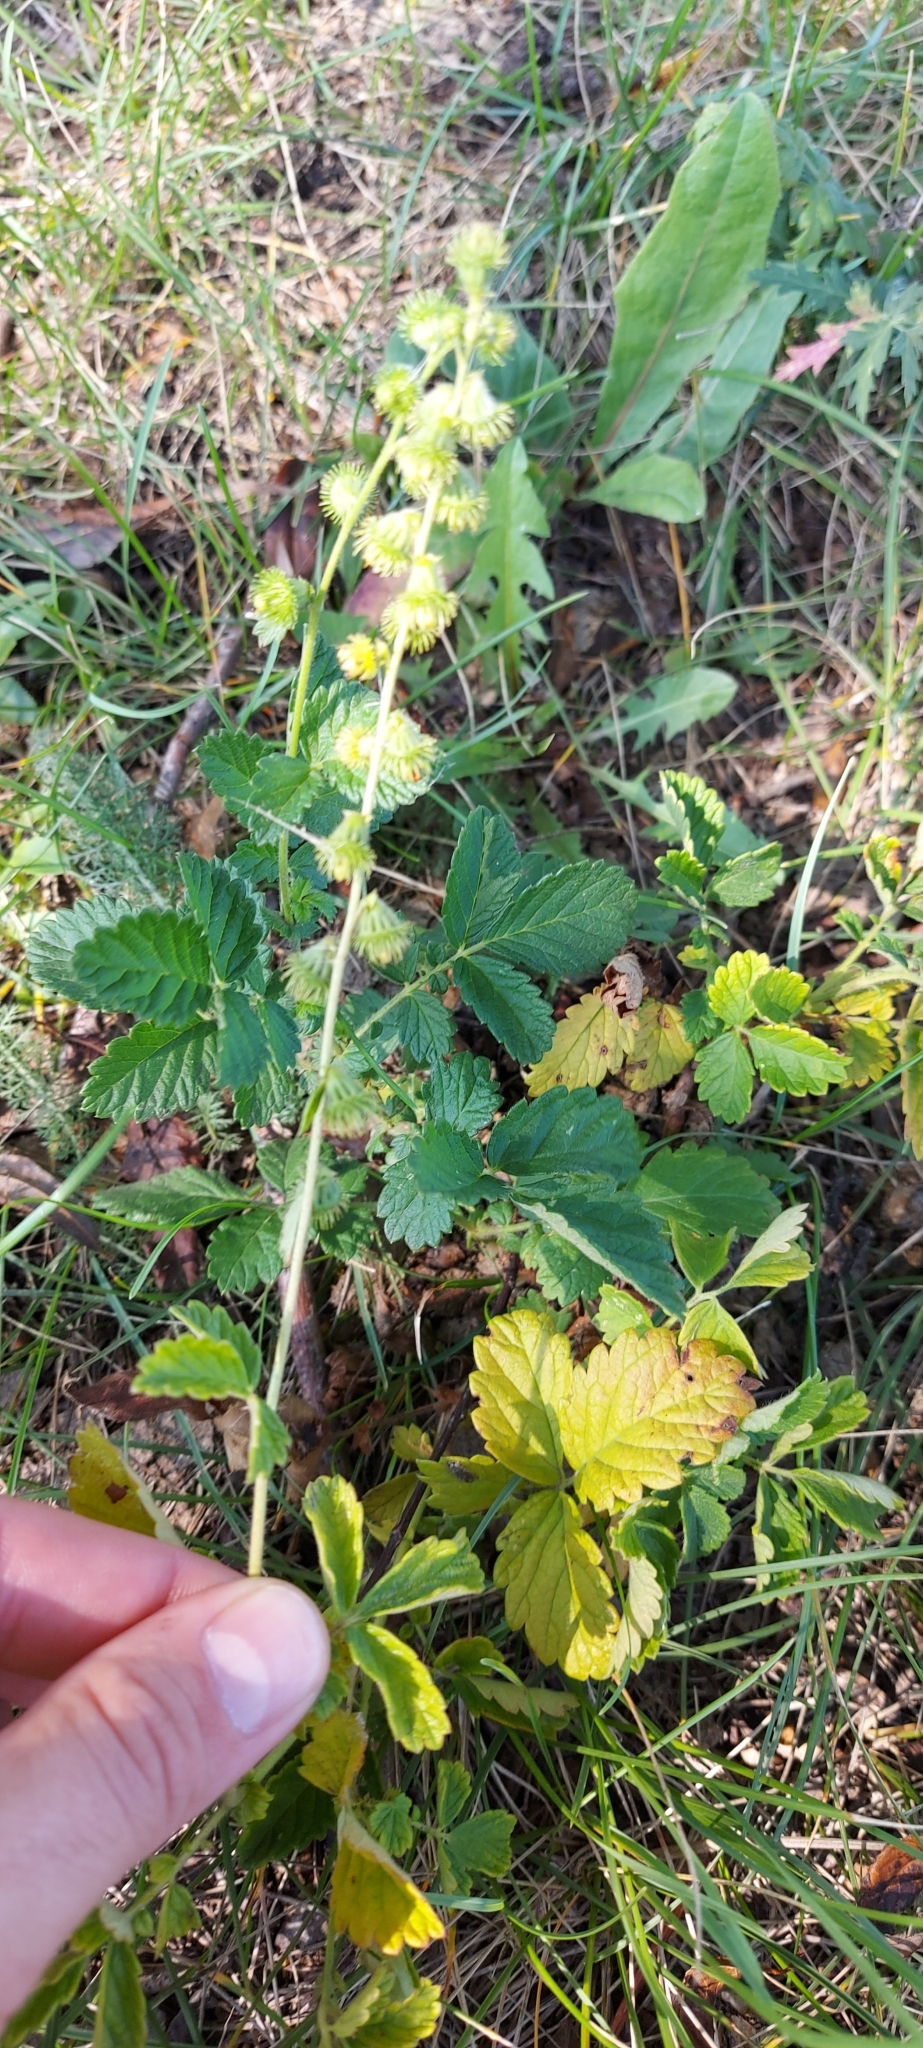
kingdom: Plantae
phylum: Tracheophyta
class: Magnoliopsida
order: Rosales
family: Rosaceae
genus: Agrimonia
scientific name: Agrimonia eupatoria
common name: Agrimony
